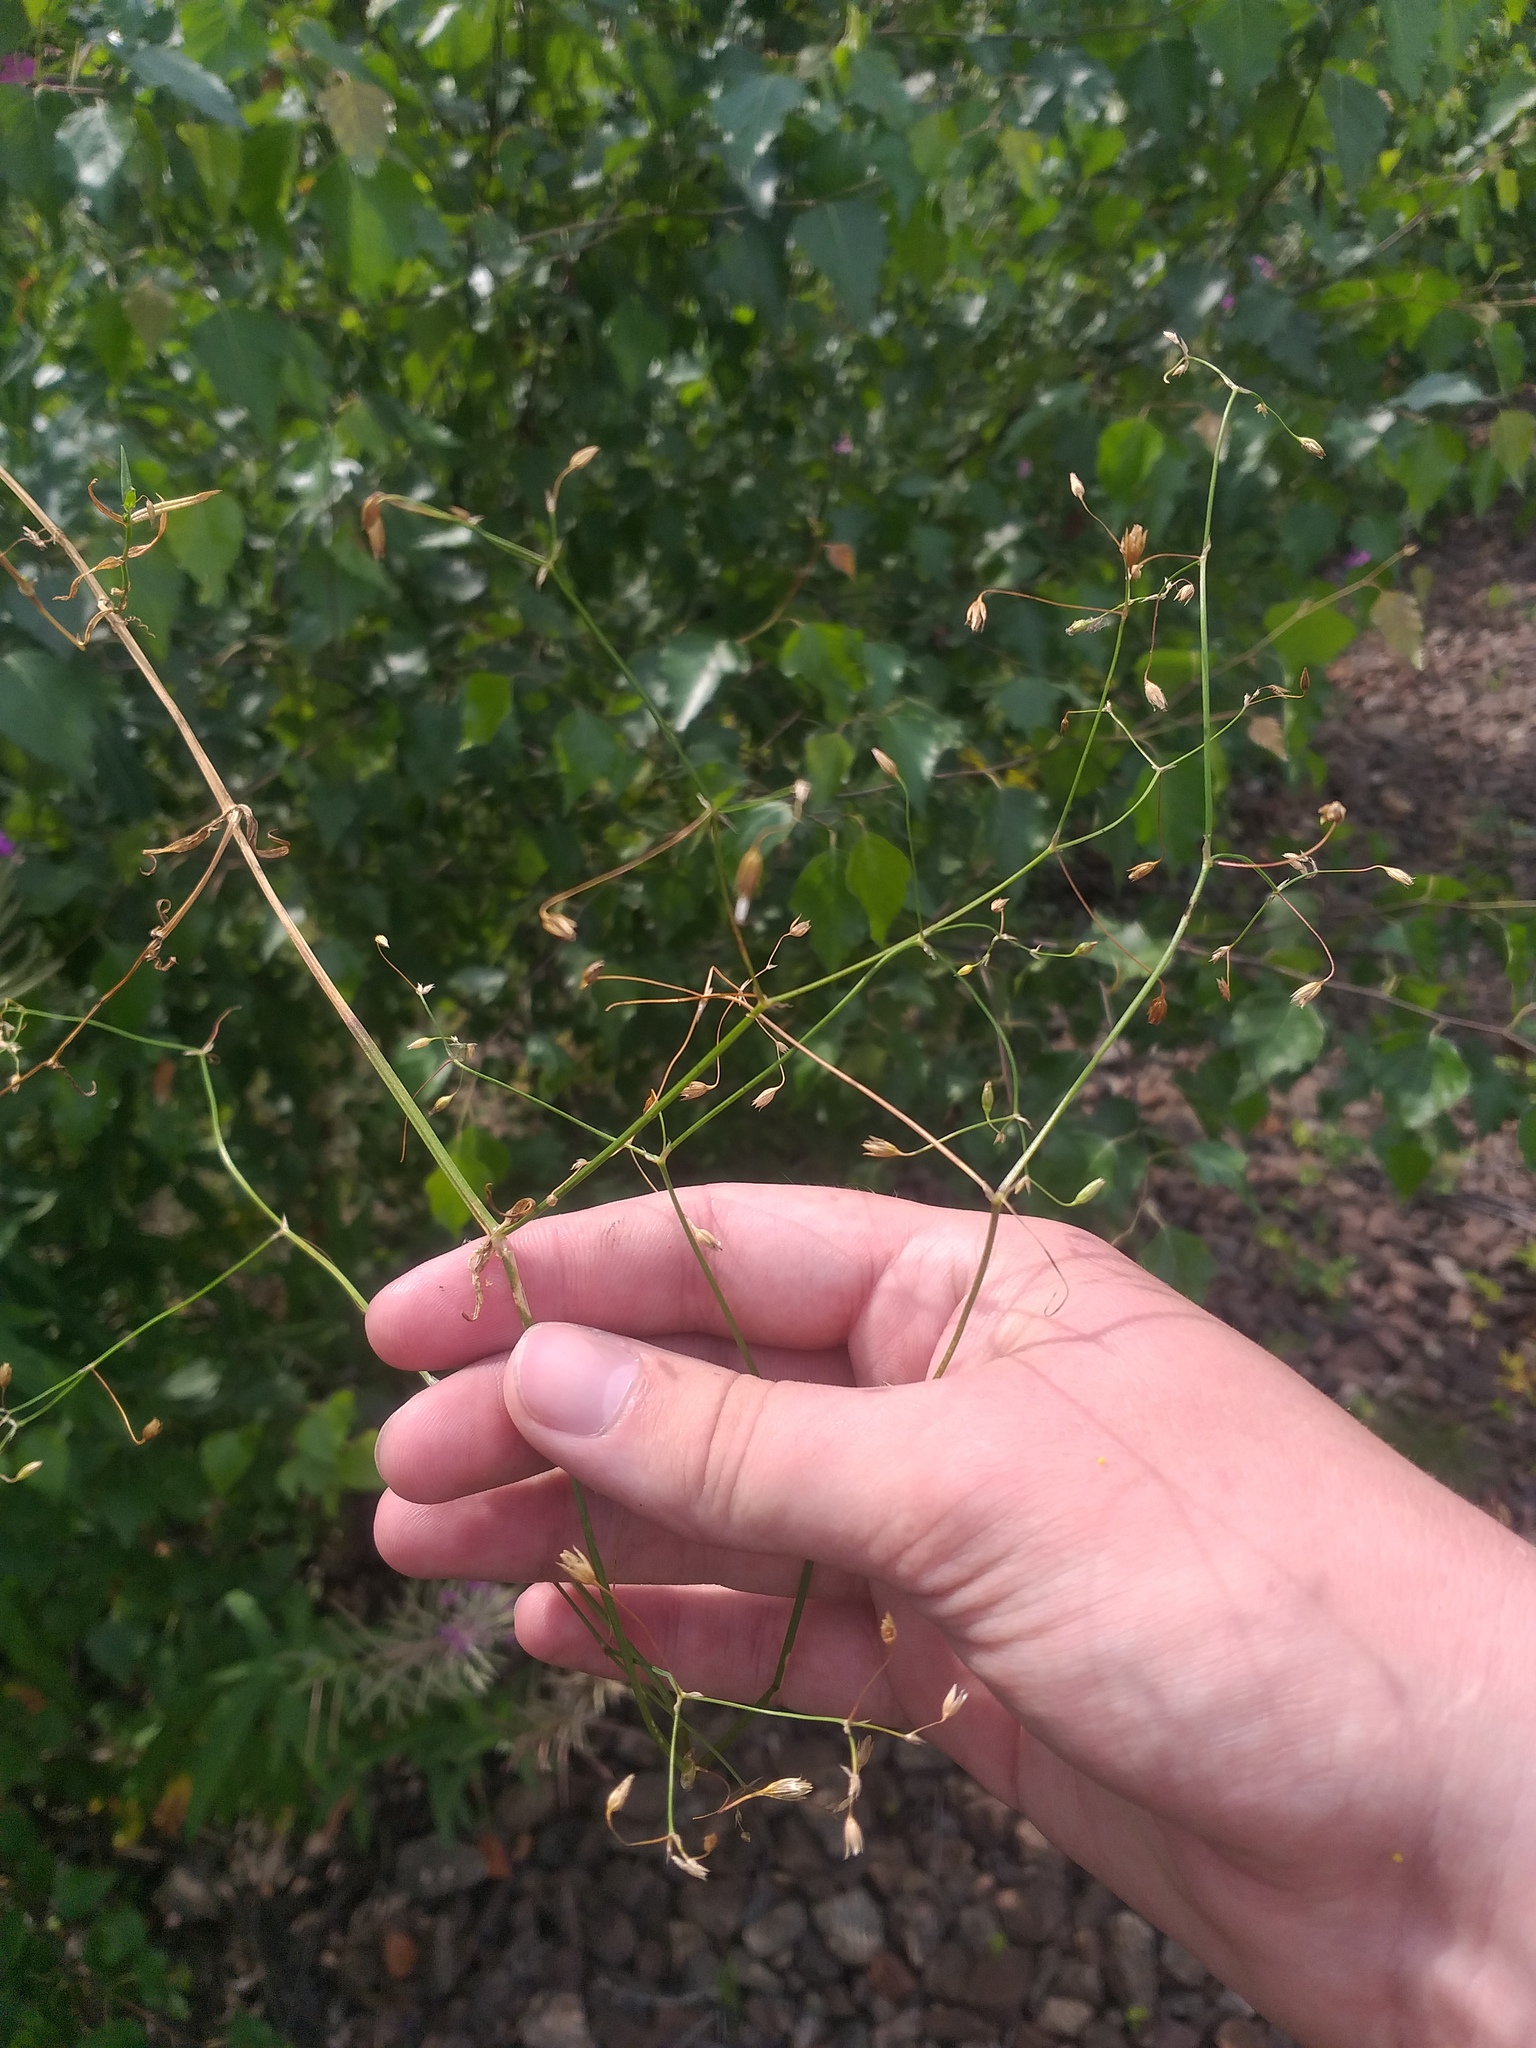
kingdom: Plantae
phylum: Tracheophyta
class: Magnoliopsida
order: Caryophyllales
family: Caryophyllaceae
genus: Stellaria
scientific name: Stellaria graminea
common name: Grass-like starwort
